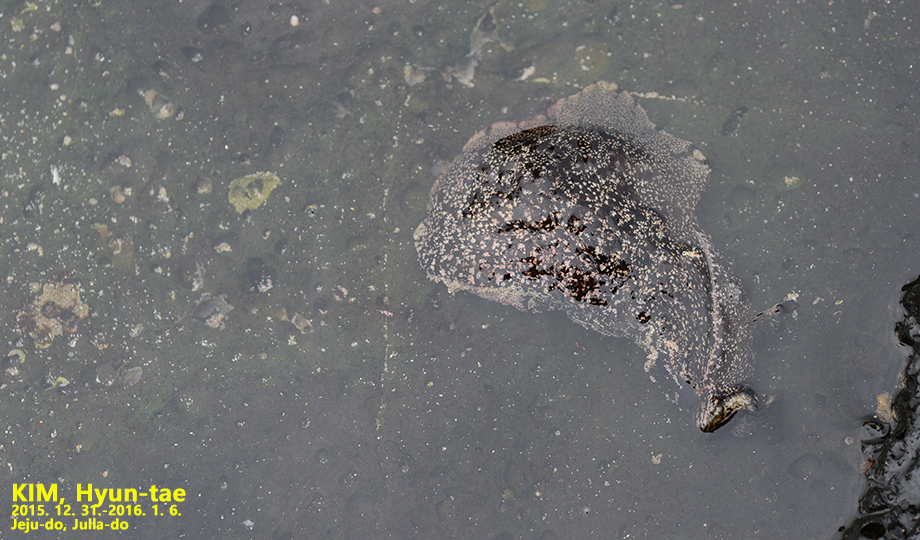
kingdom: Animalia
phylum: Mollusca
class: Gastropoda
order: Aplysiida
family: Aplysiidae
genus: Aplysia
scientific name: Aplysia kurodai
